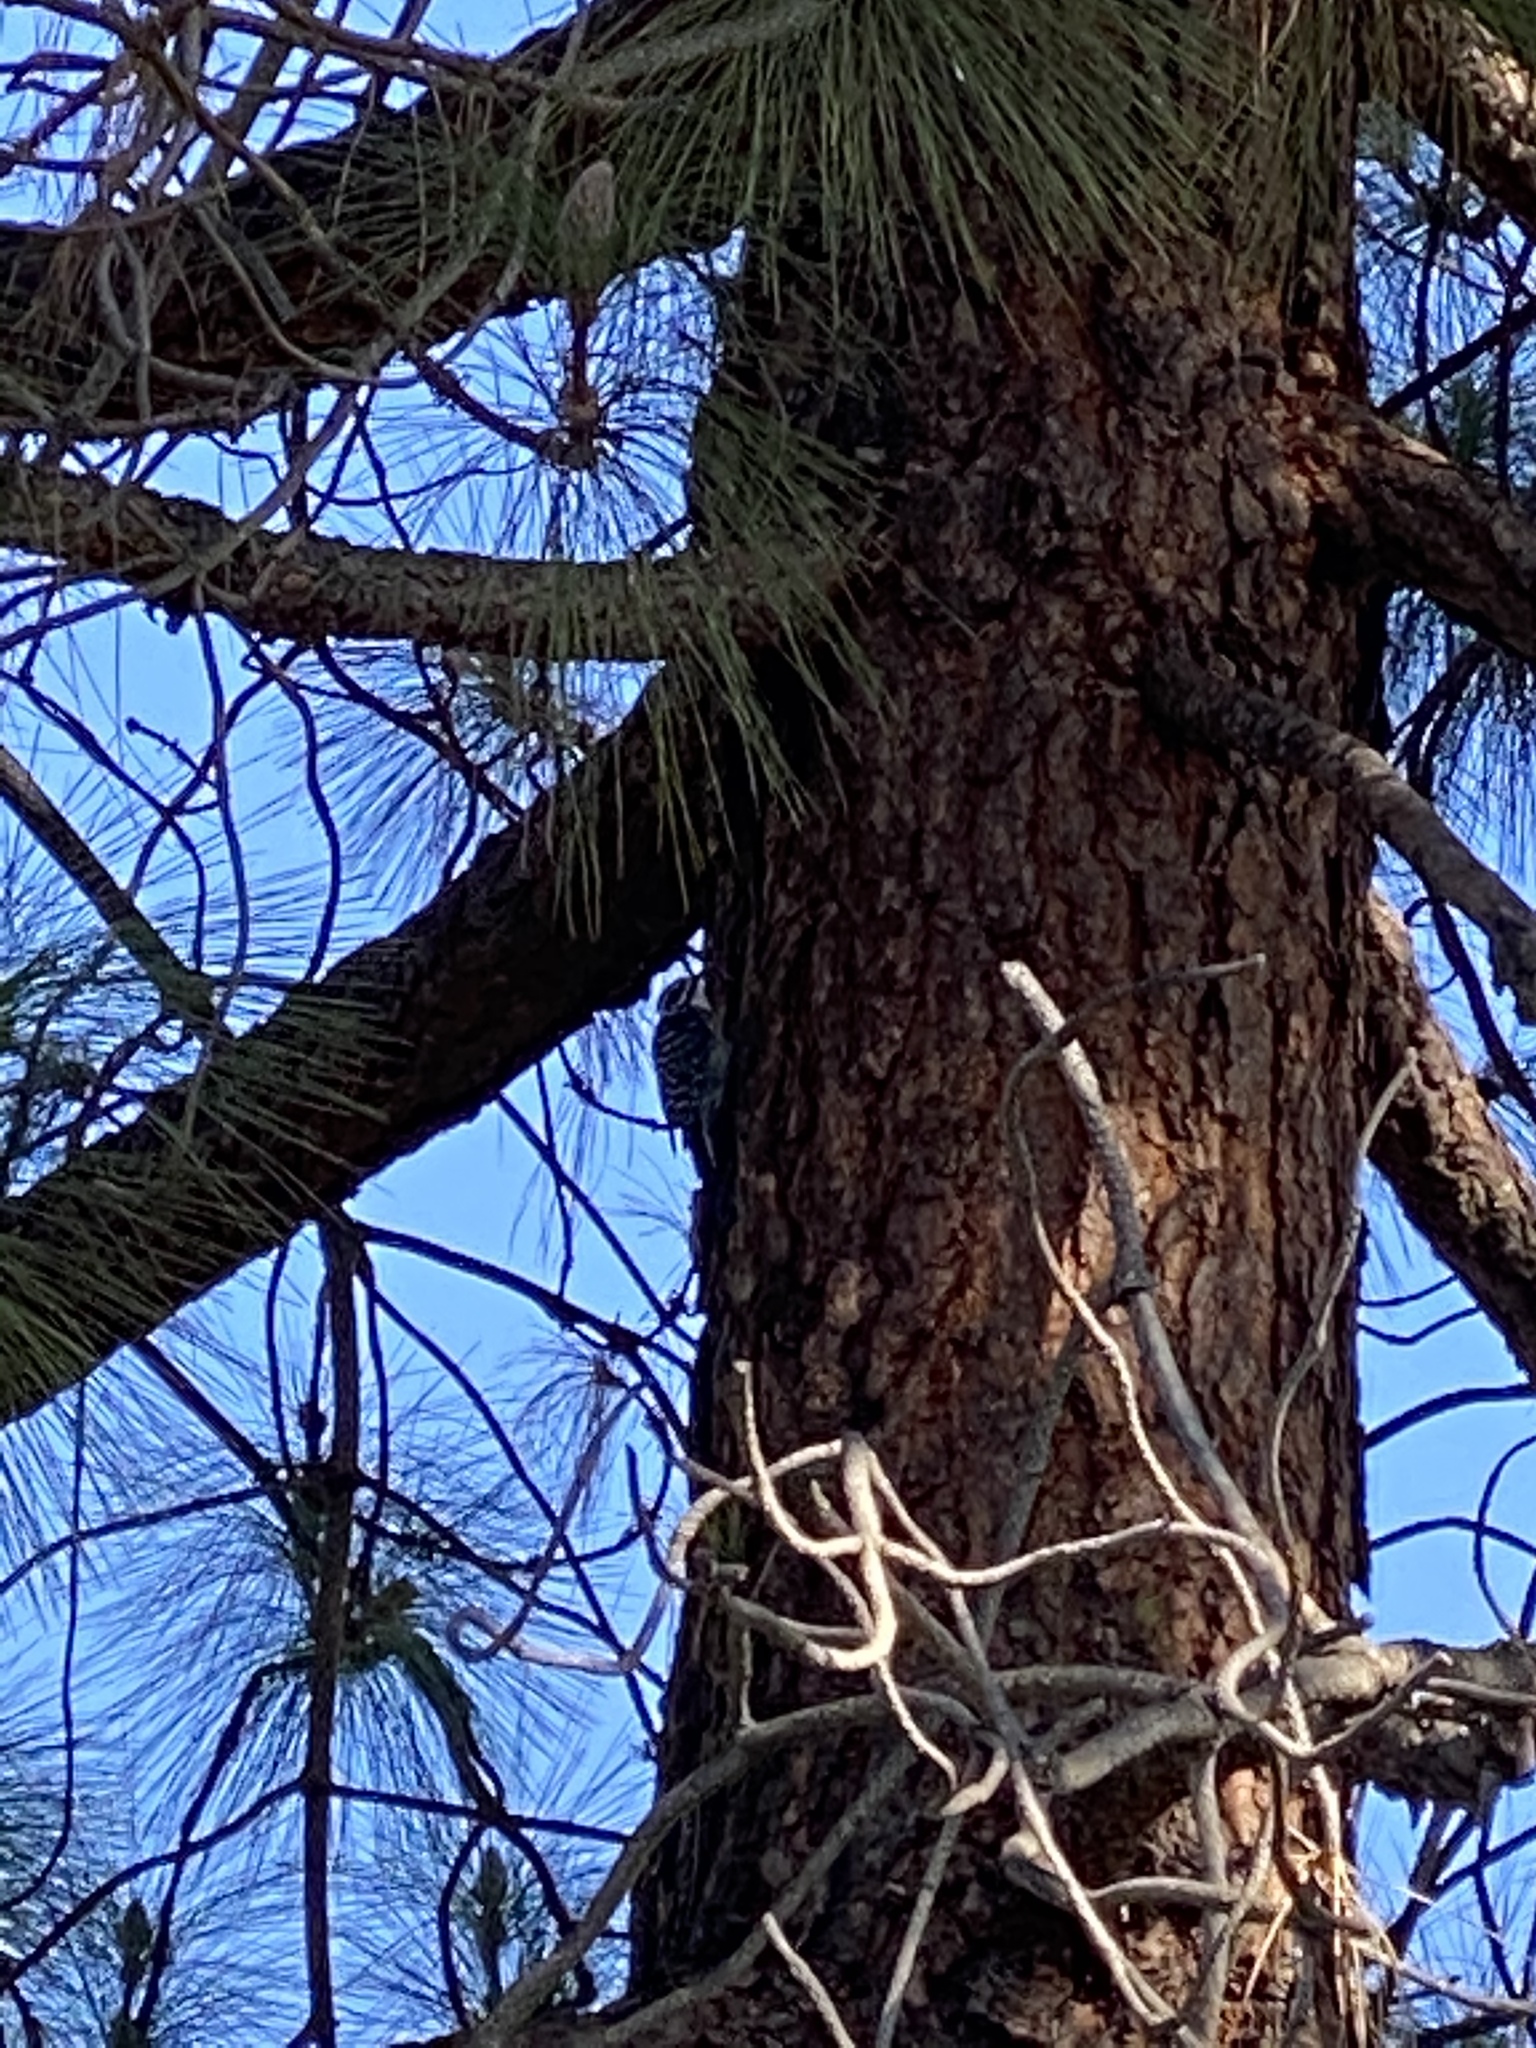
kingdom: Animalia
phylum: Chordata
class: Aves
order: Piciformes
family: Picidae
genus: Dryobates
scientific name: Dryobates nuttallii
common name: Nuttall's woodpecker
